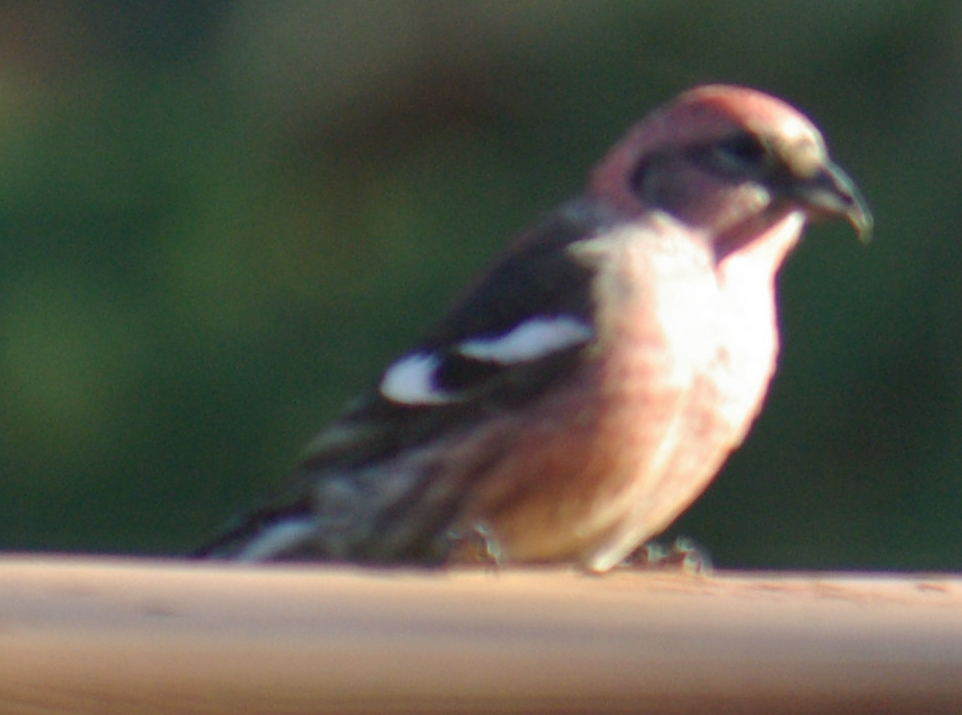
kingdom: Animalia
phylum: Chordata
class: Aves
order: Passeriformes
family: Fringillidae
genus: Loxia
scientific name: Loxia leucoptera
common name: Two-barred crossbill
